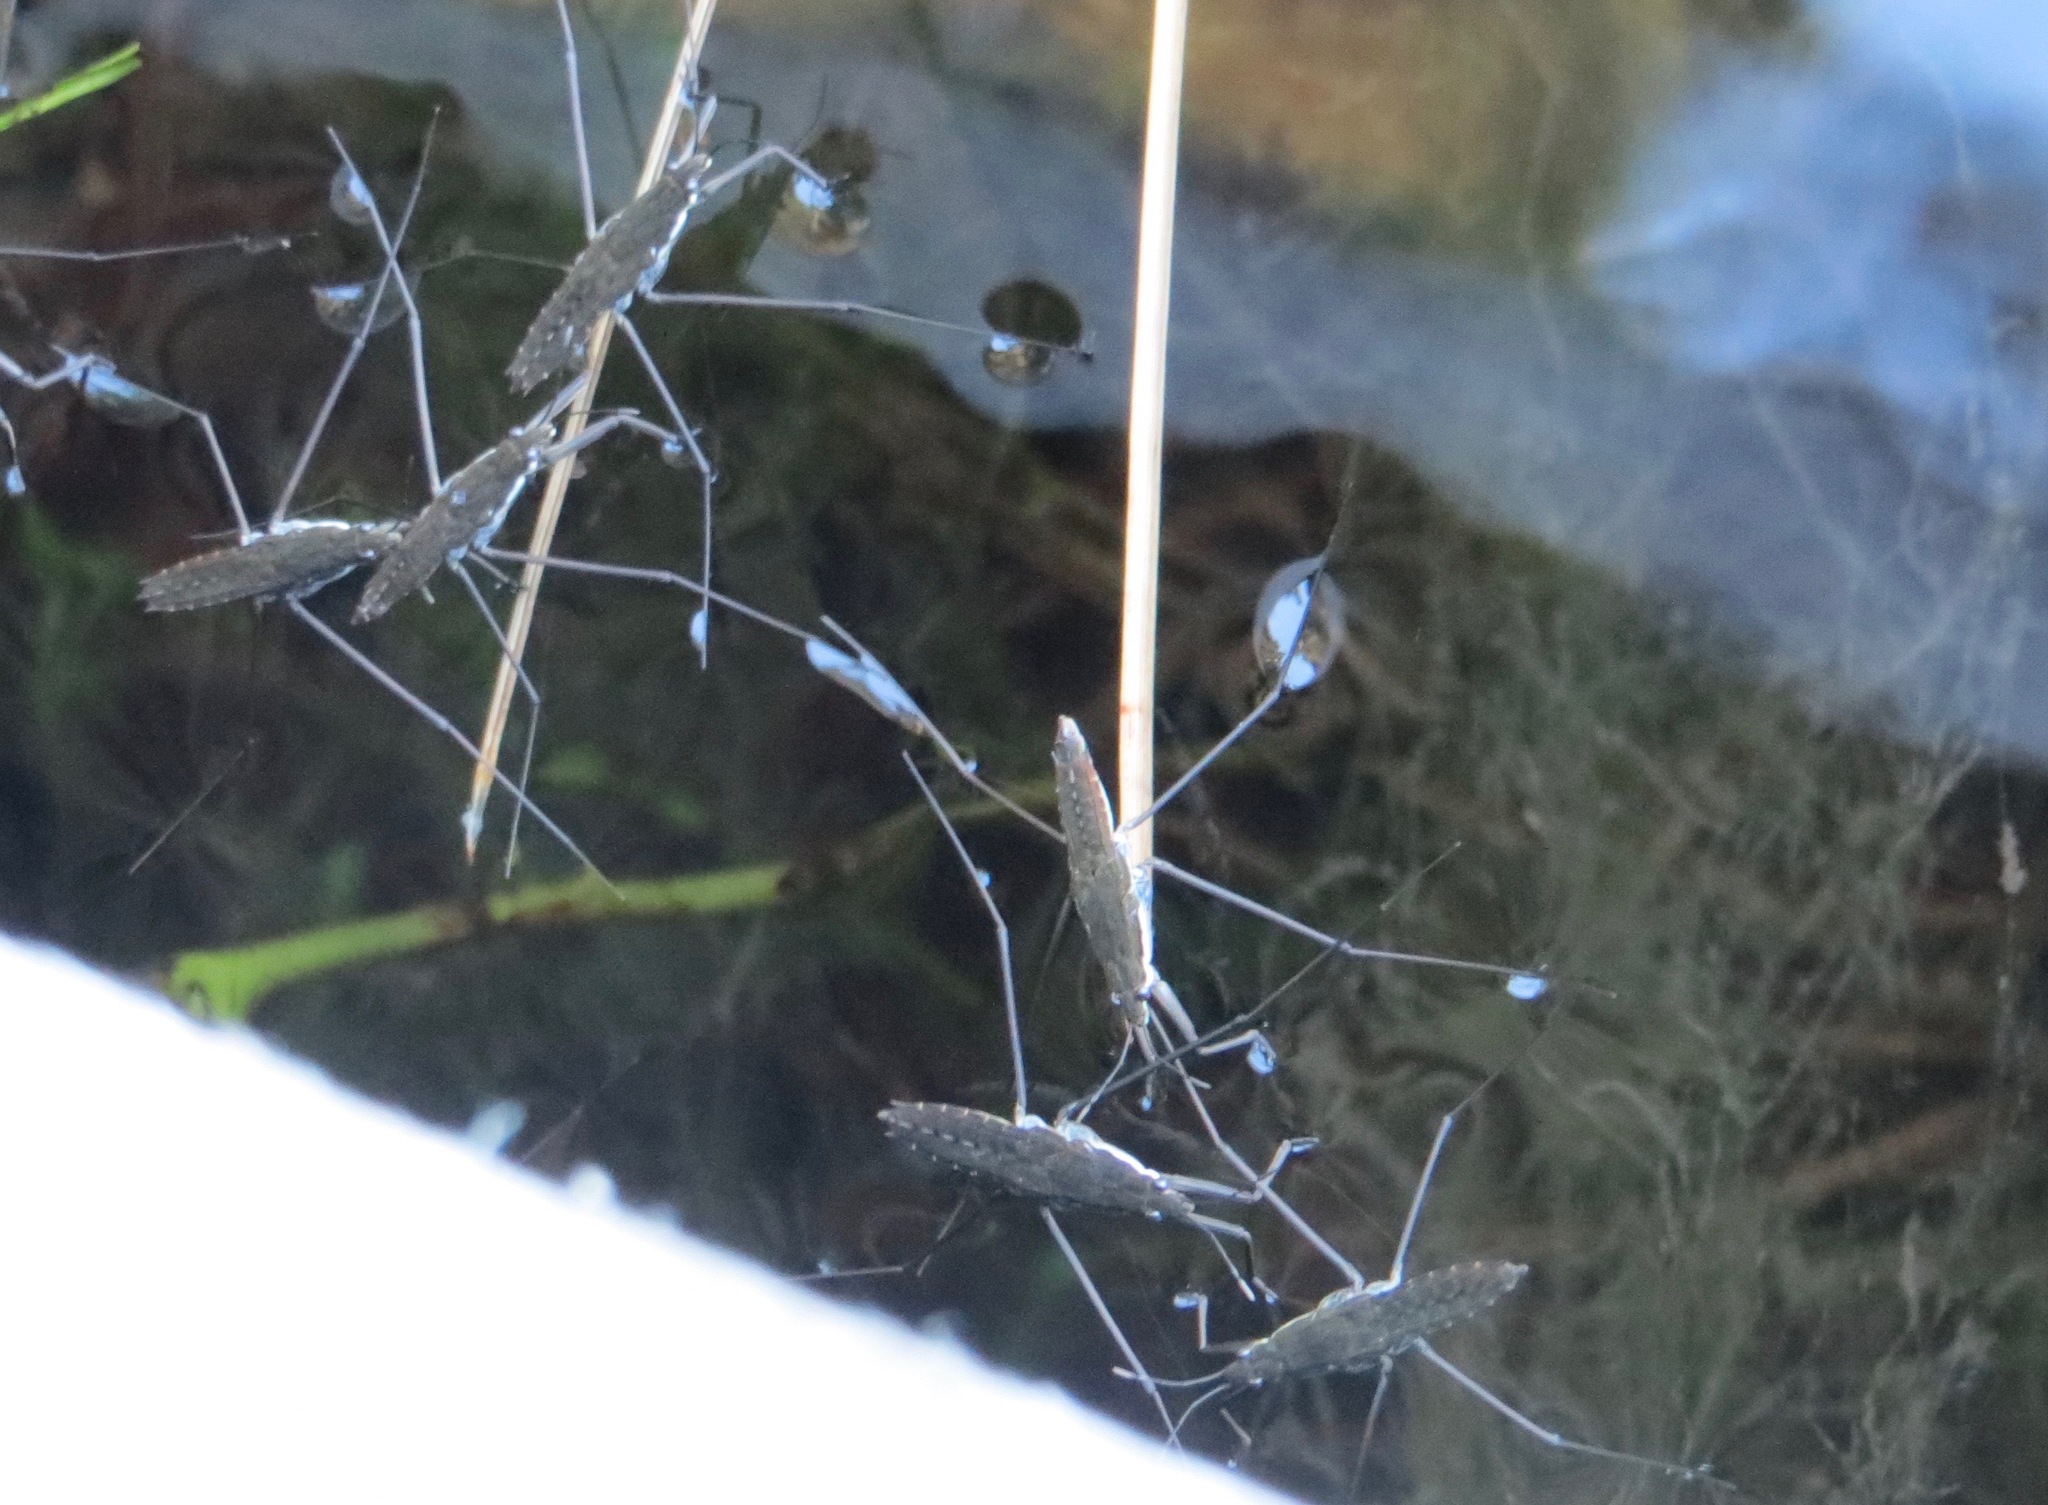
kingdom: Animalia
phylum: Arthropoda
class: Insecta
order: Hemiptera
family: Gerridae
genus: Aquarius
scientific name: Aquarius remigis
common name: Common water strider
